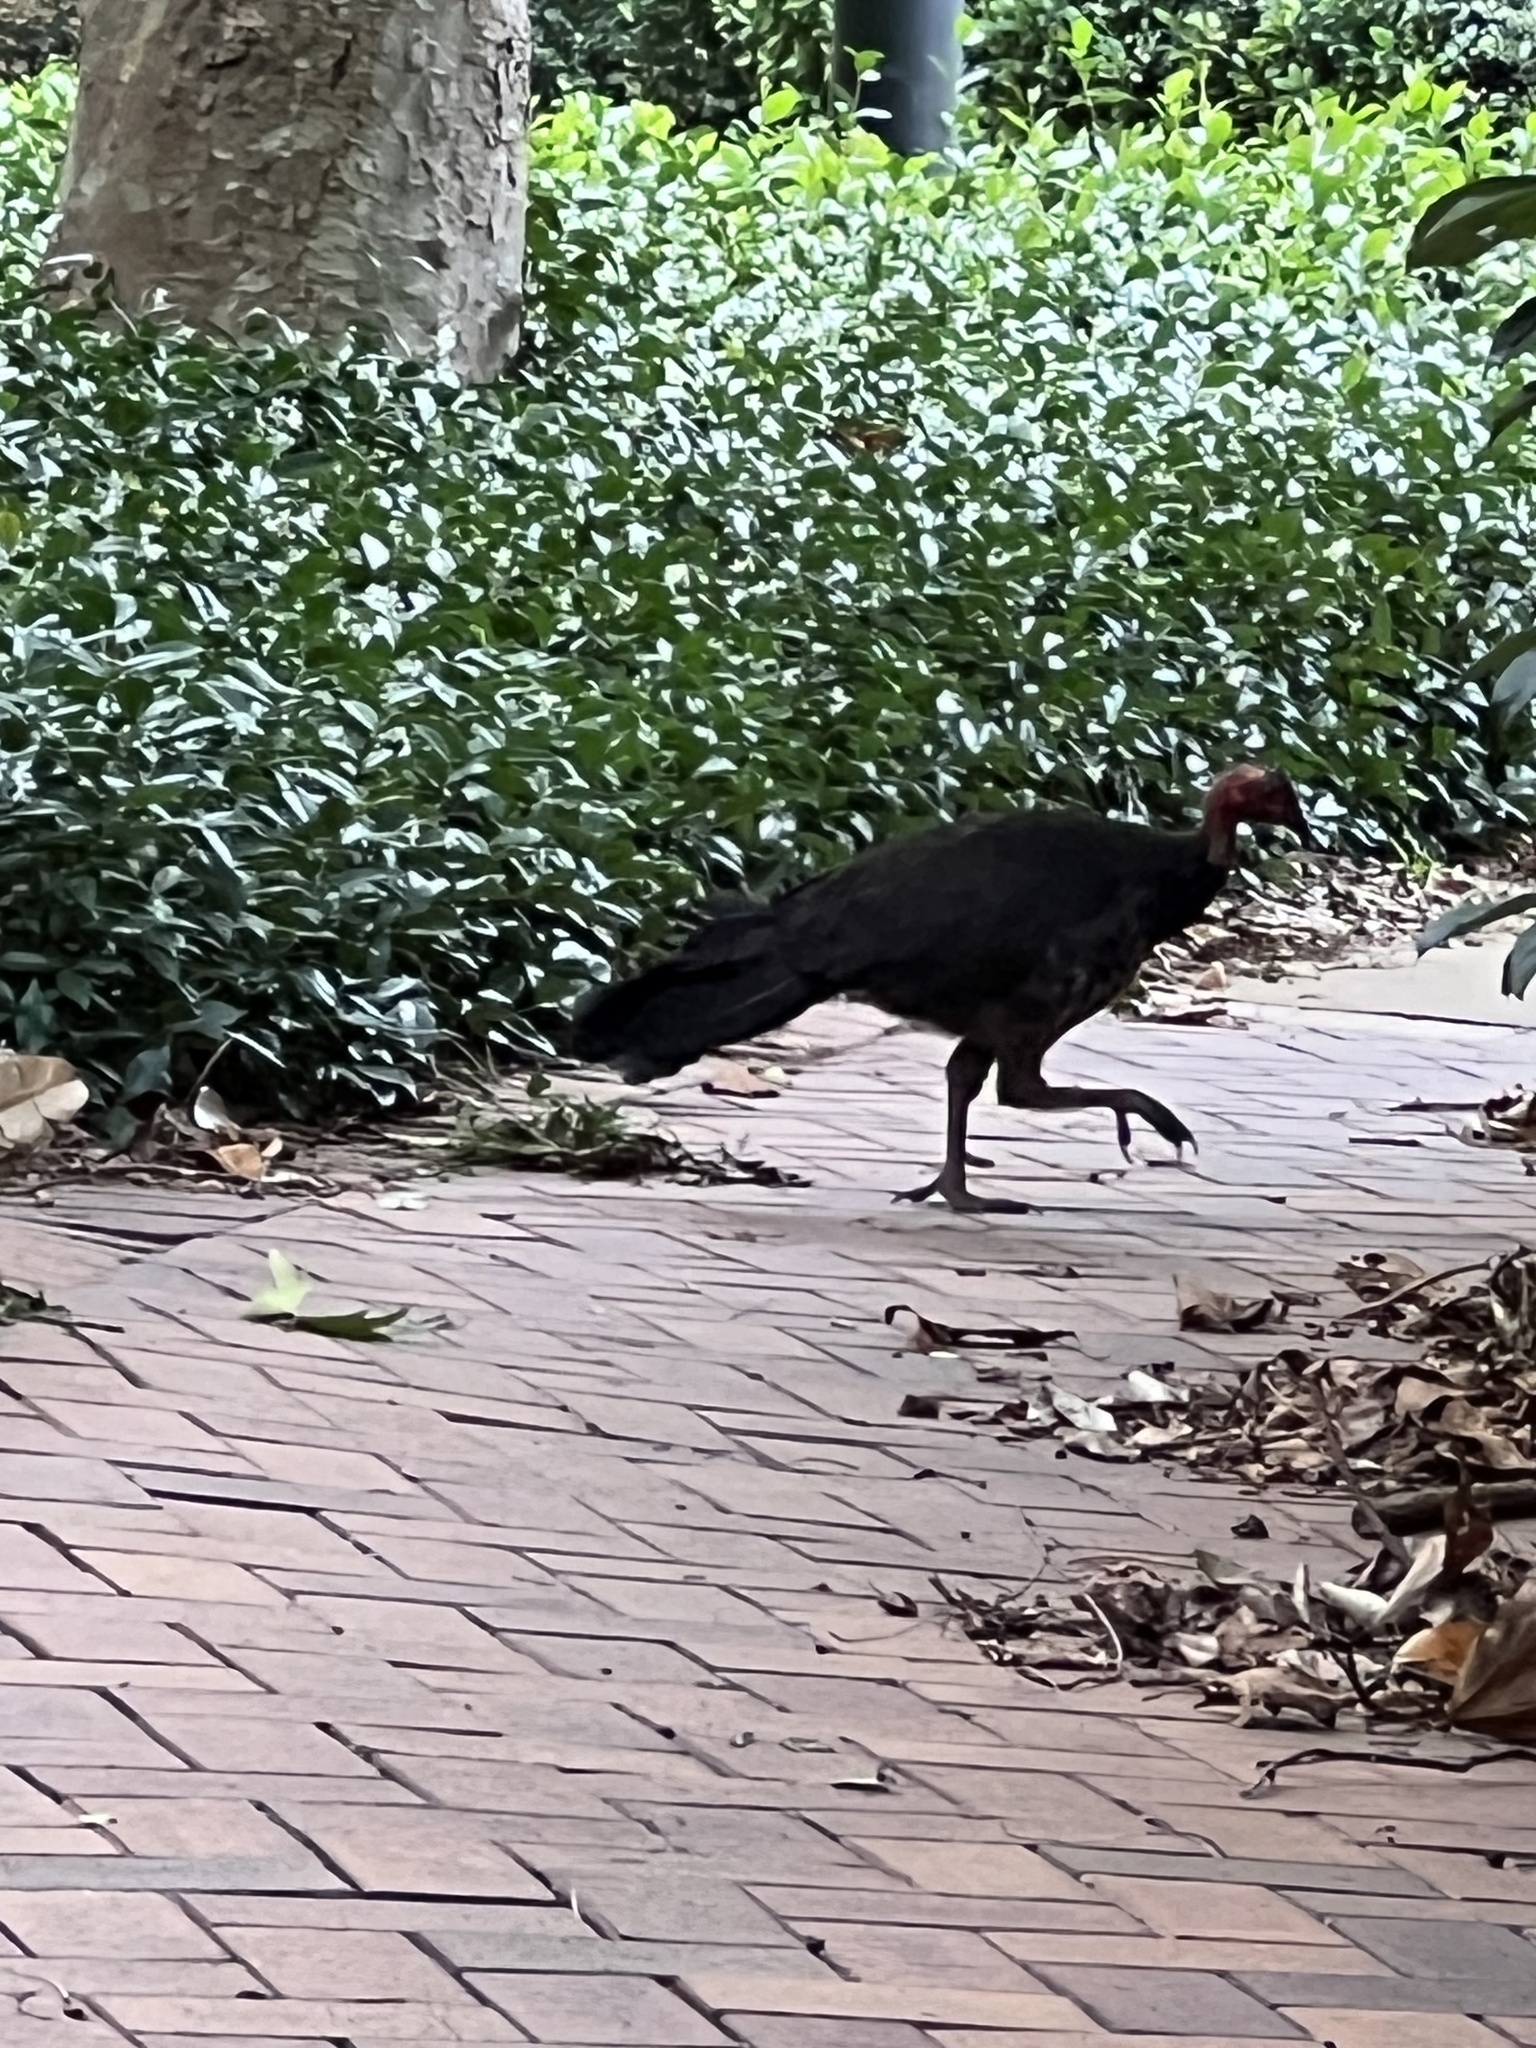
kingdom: Animalia
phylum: Chordata
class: Aves
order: Galliformes
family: Megapodiidae
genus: Alectura
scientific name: Alectura lathami
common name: Australian brushturkey
